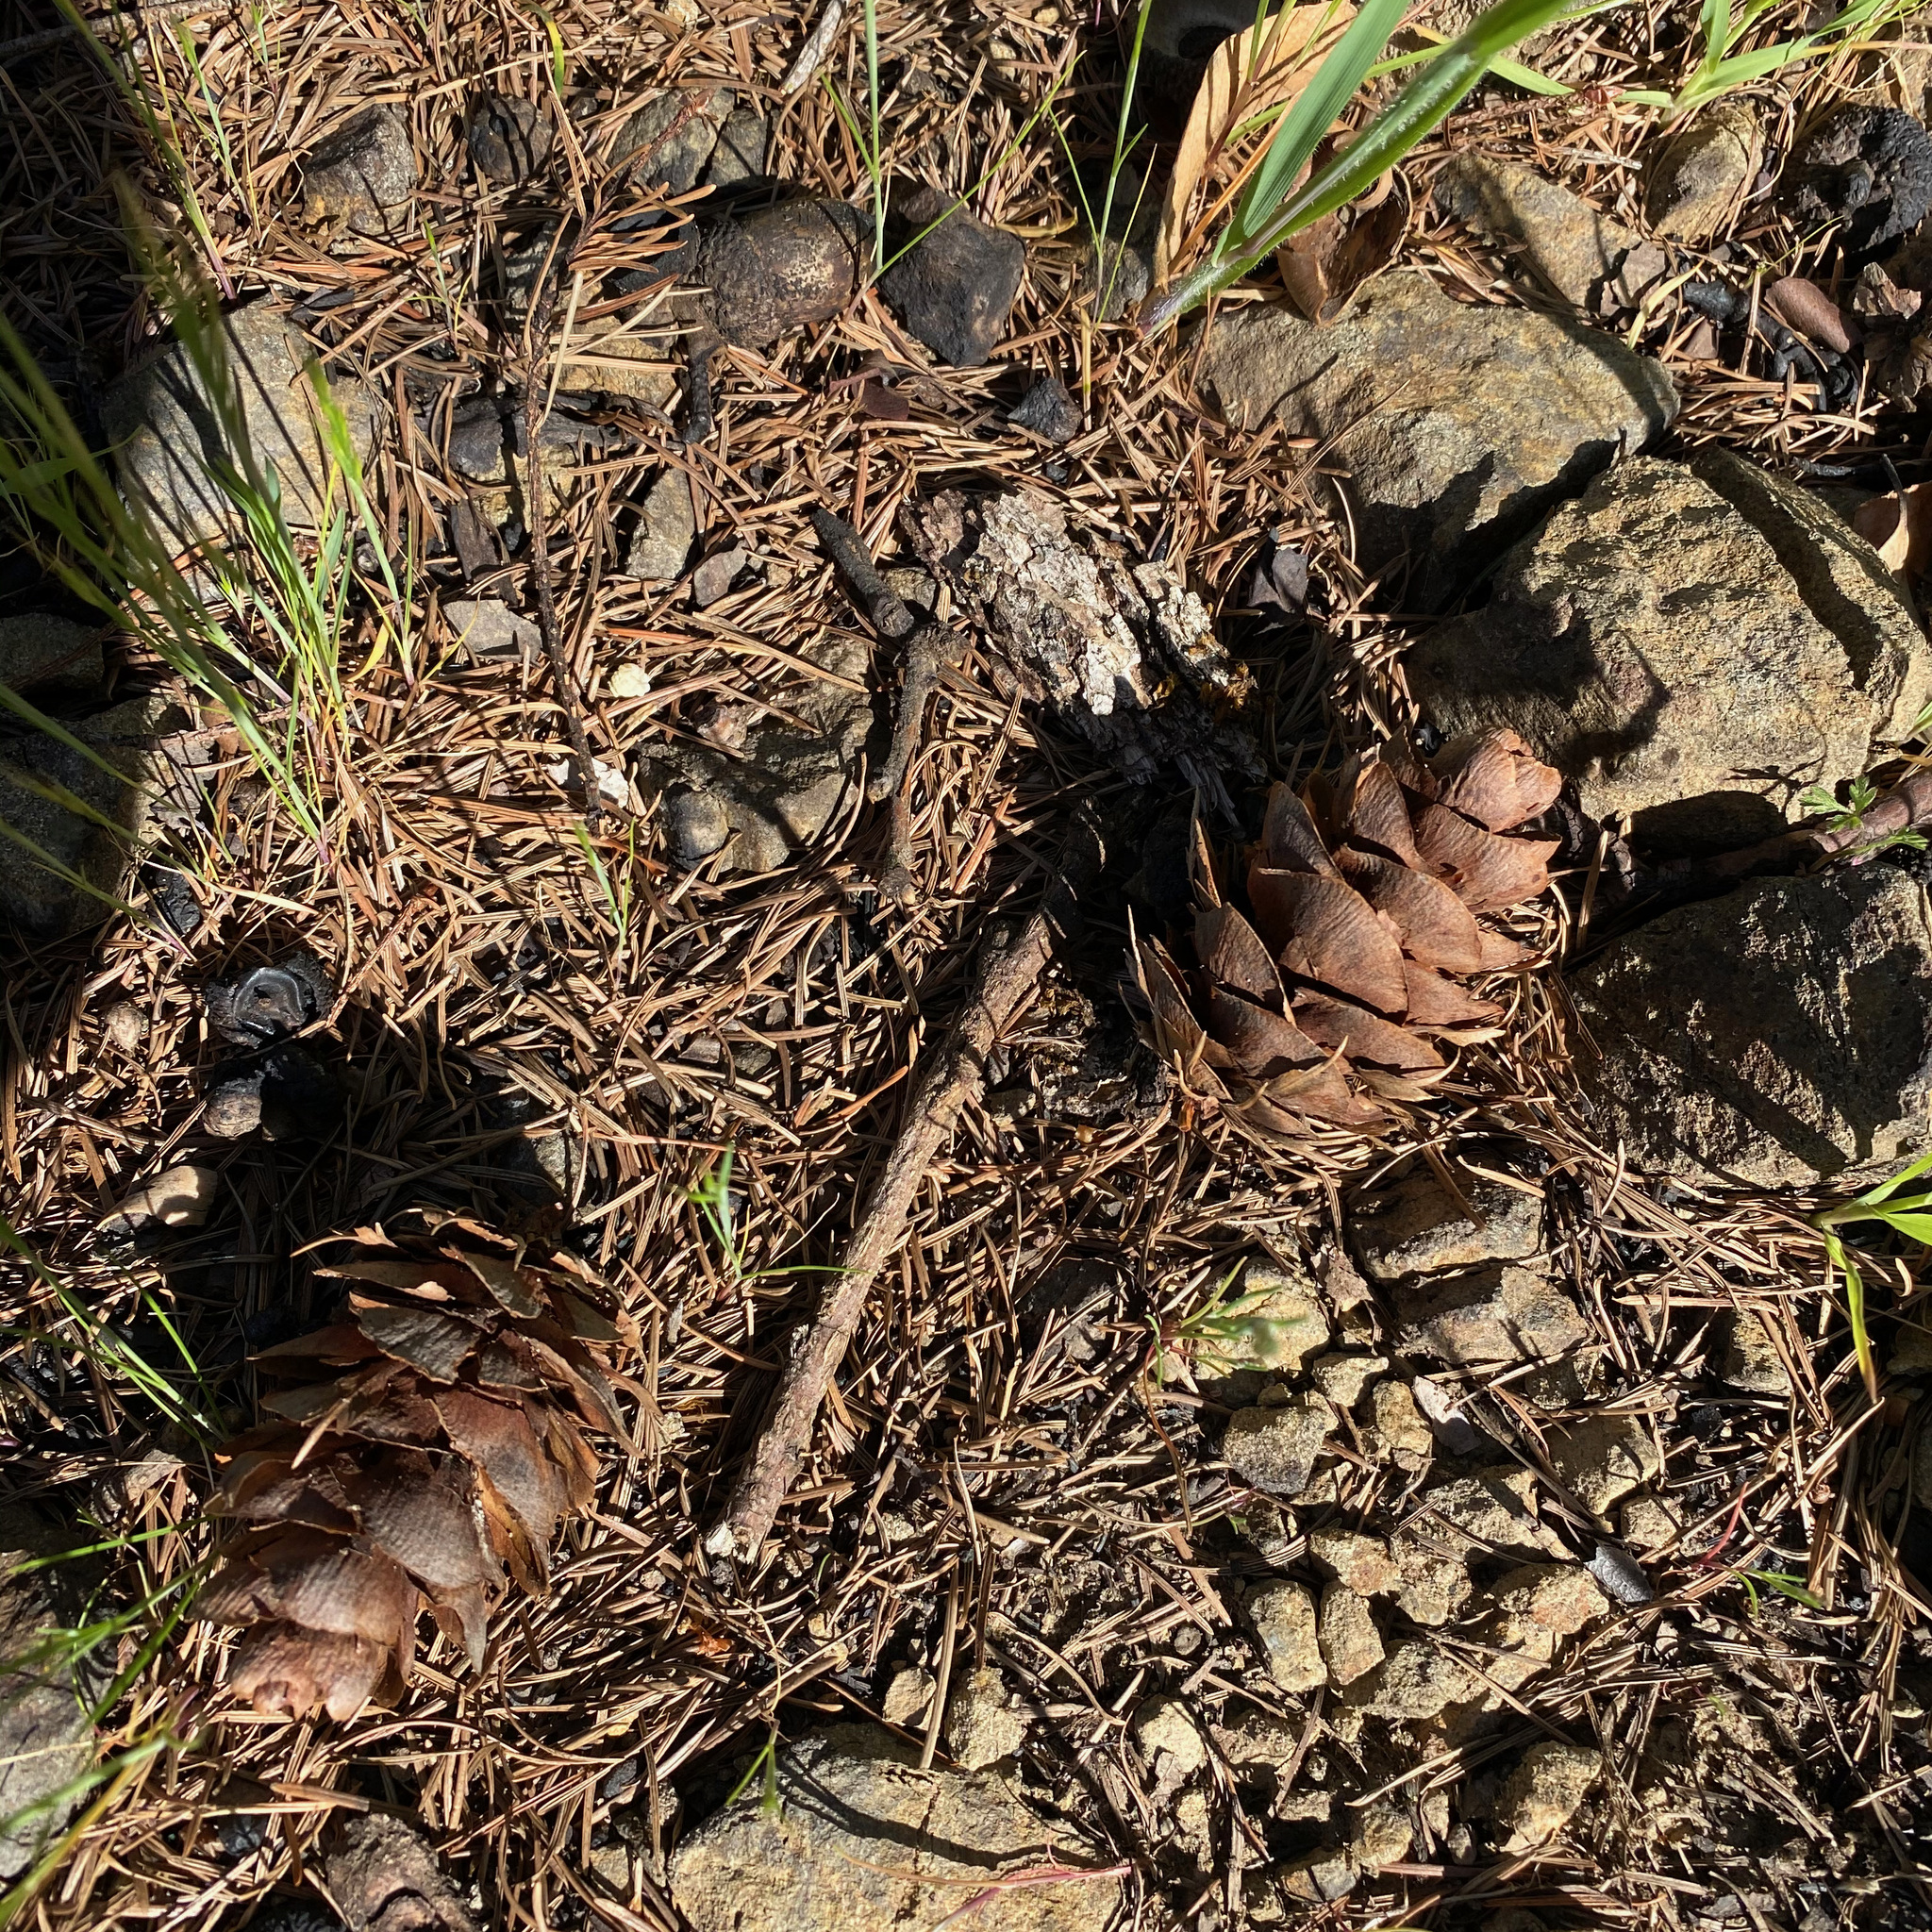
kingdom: Plantae
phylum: Tracheophyta
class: Pinopsida
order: Pinales
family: Pinaceae
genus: Pseudotsuga
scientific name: Pseudotsuga menziesii
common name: Douglas fir
